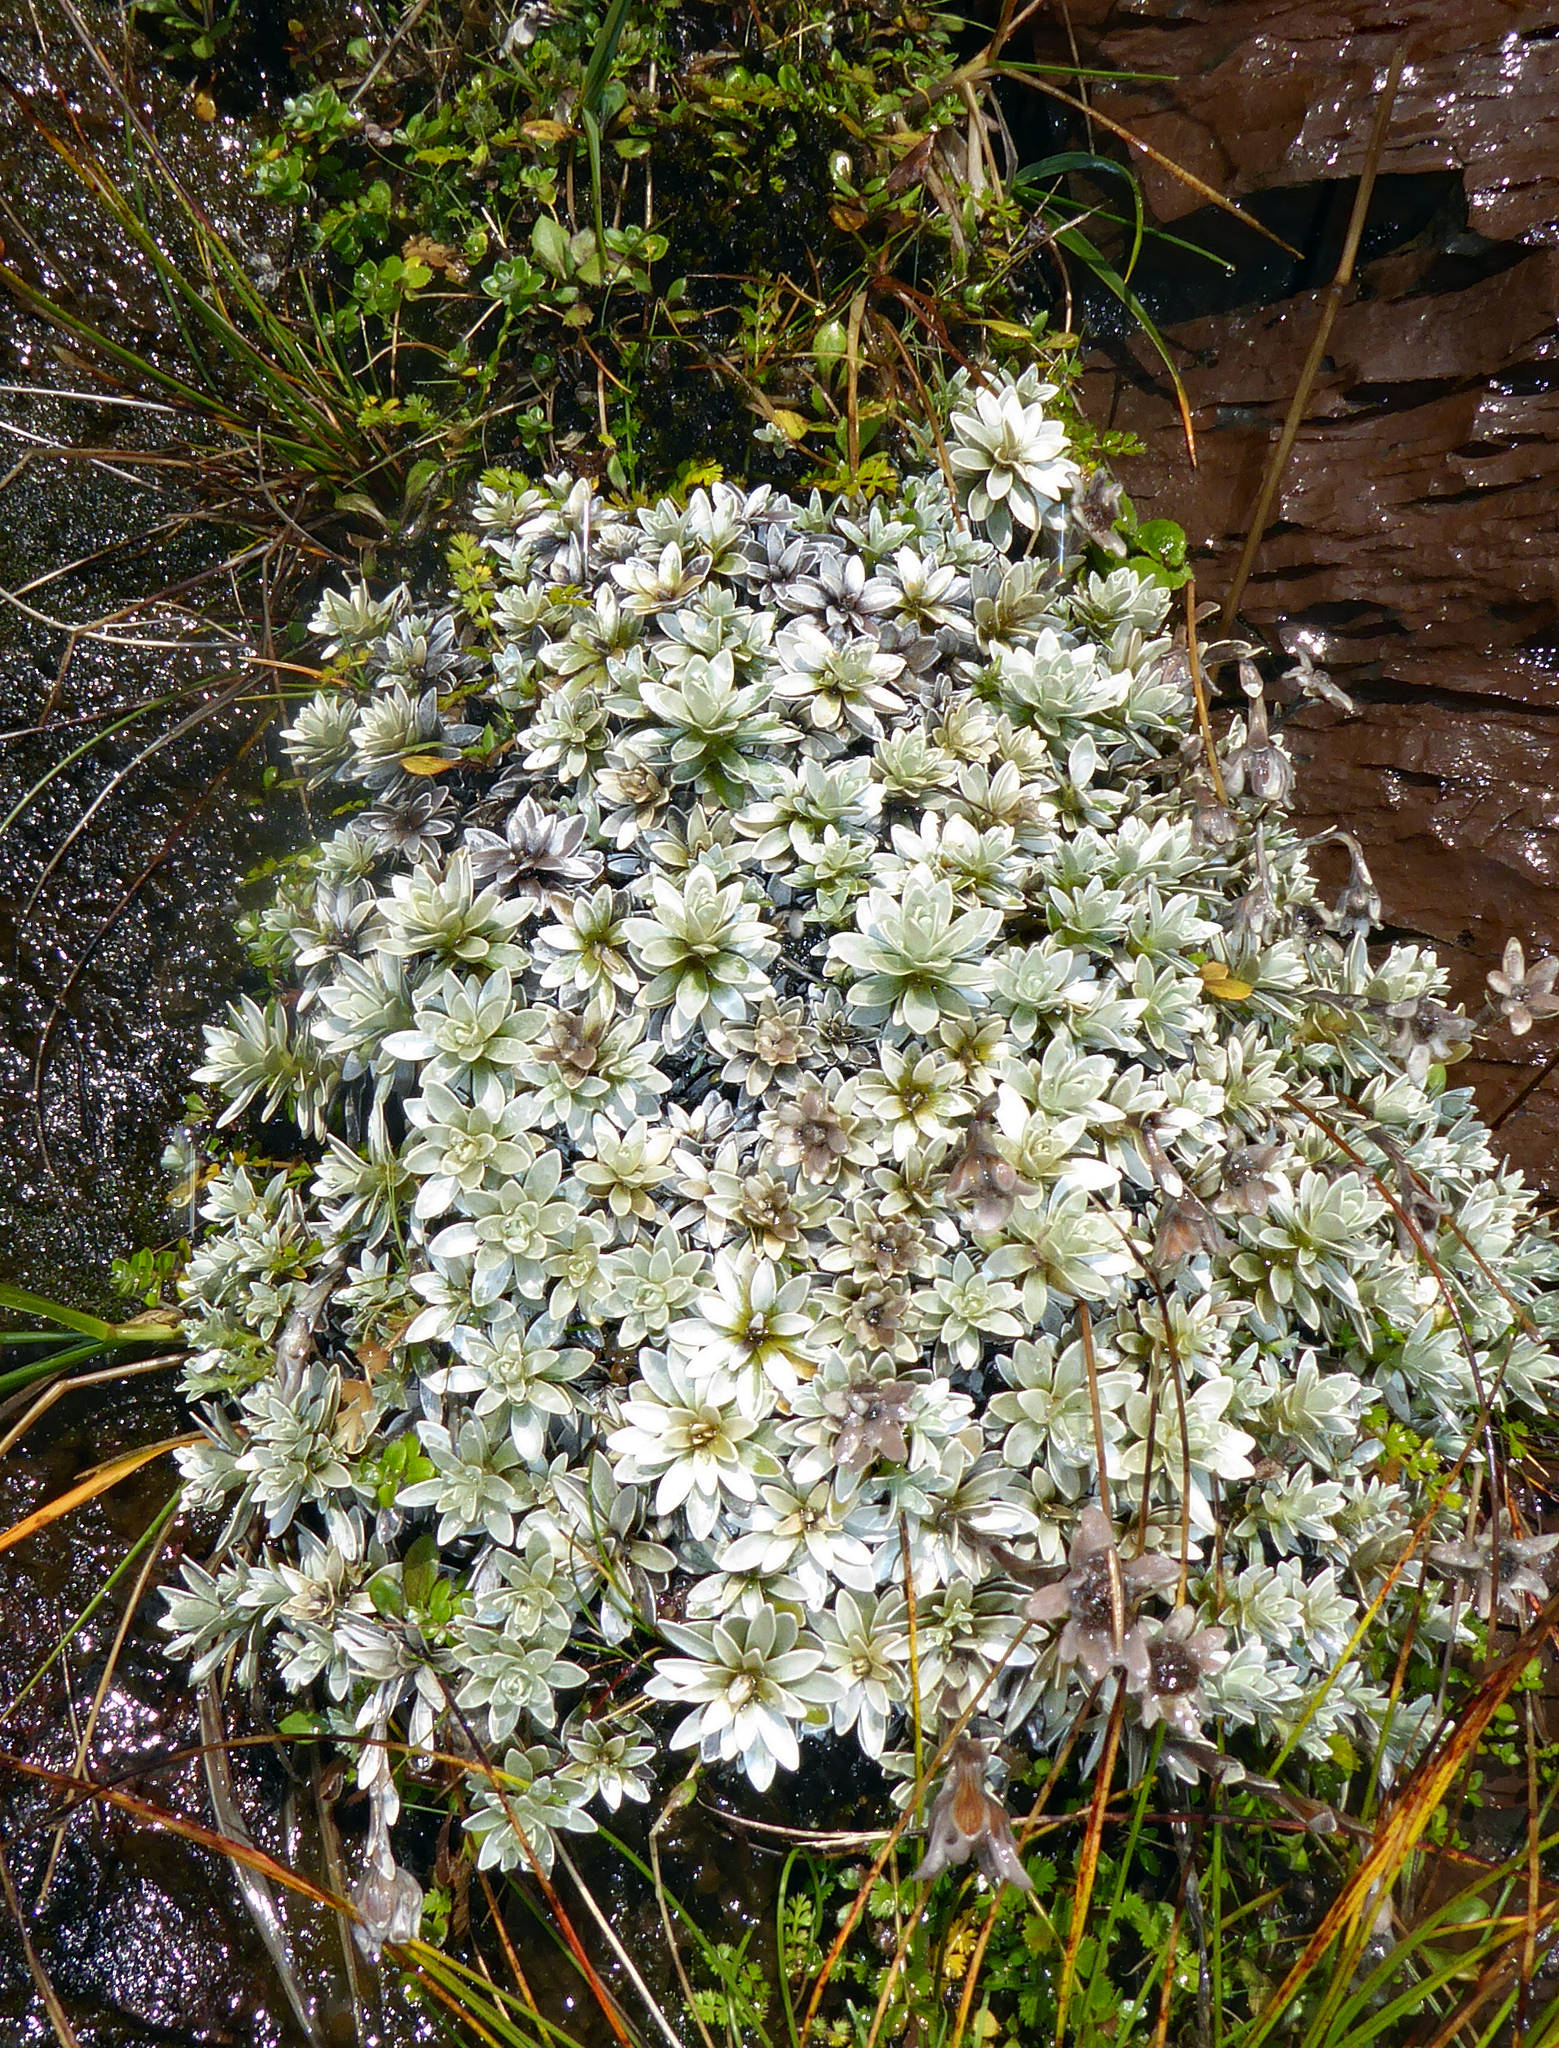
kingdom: Plantae
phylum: Tracheophyta
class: Magnoliopsida
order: Asterales
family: Asteraceae
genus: Leucogenes
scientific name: Leucogenes leontopodium
